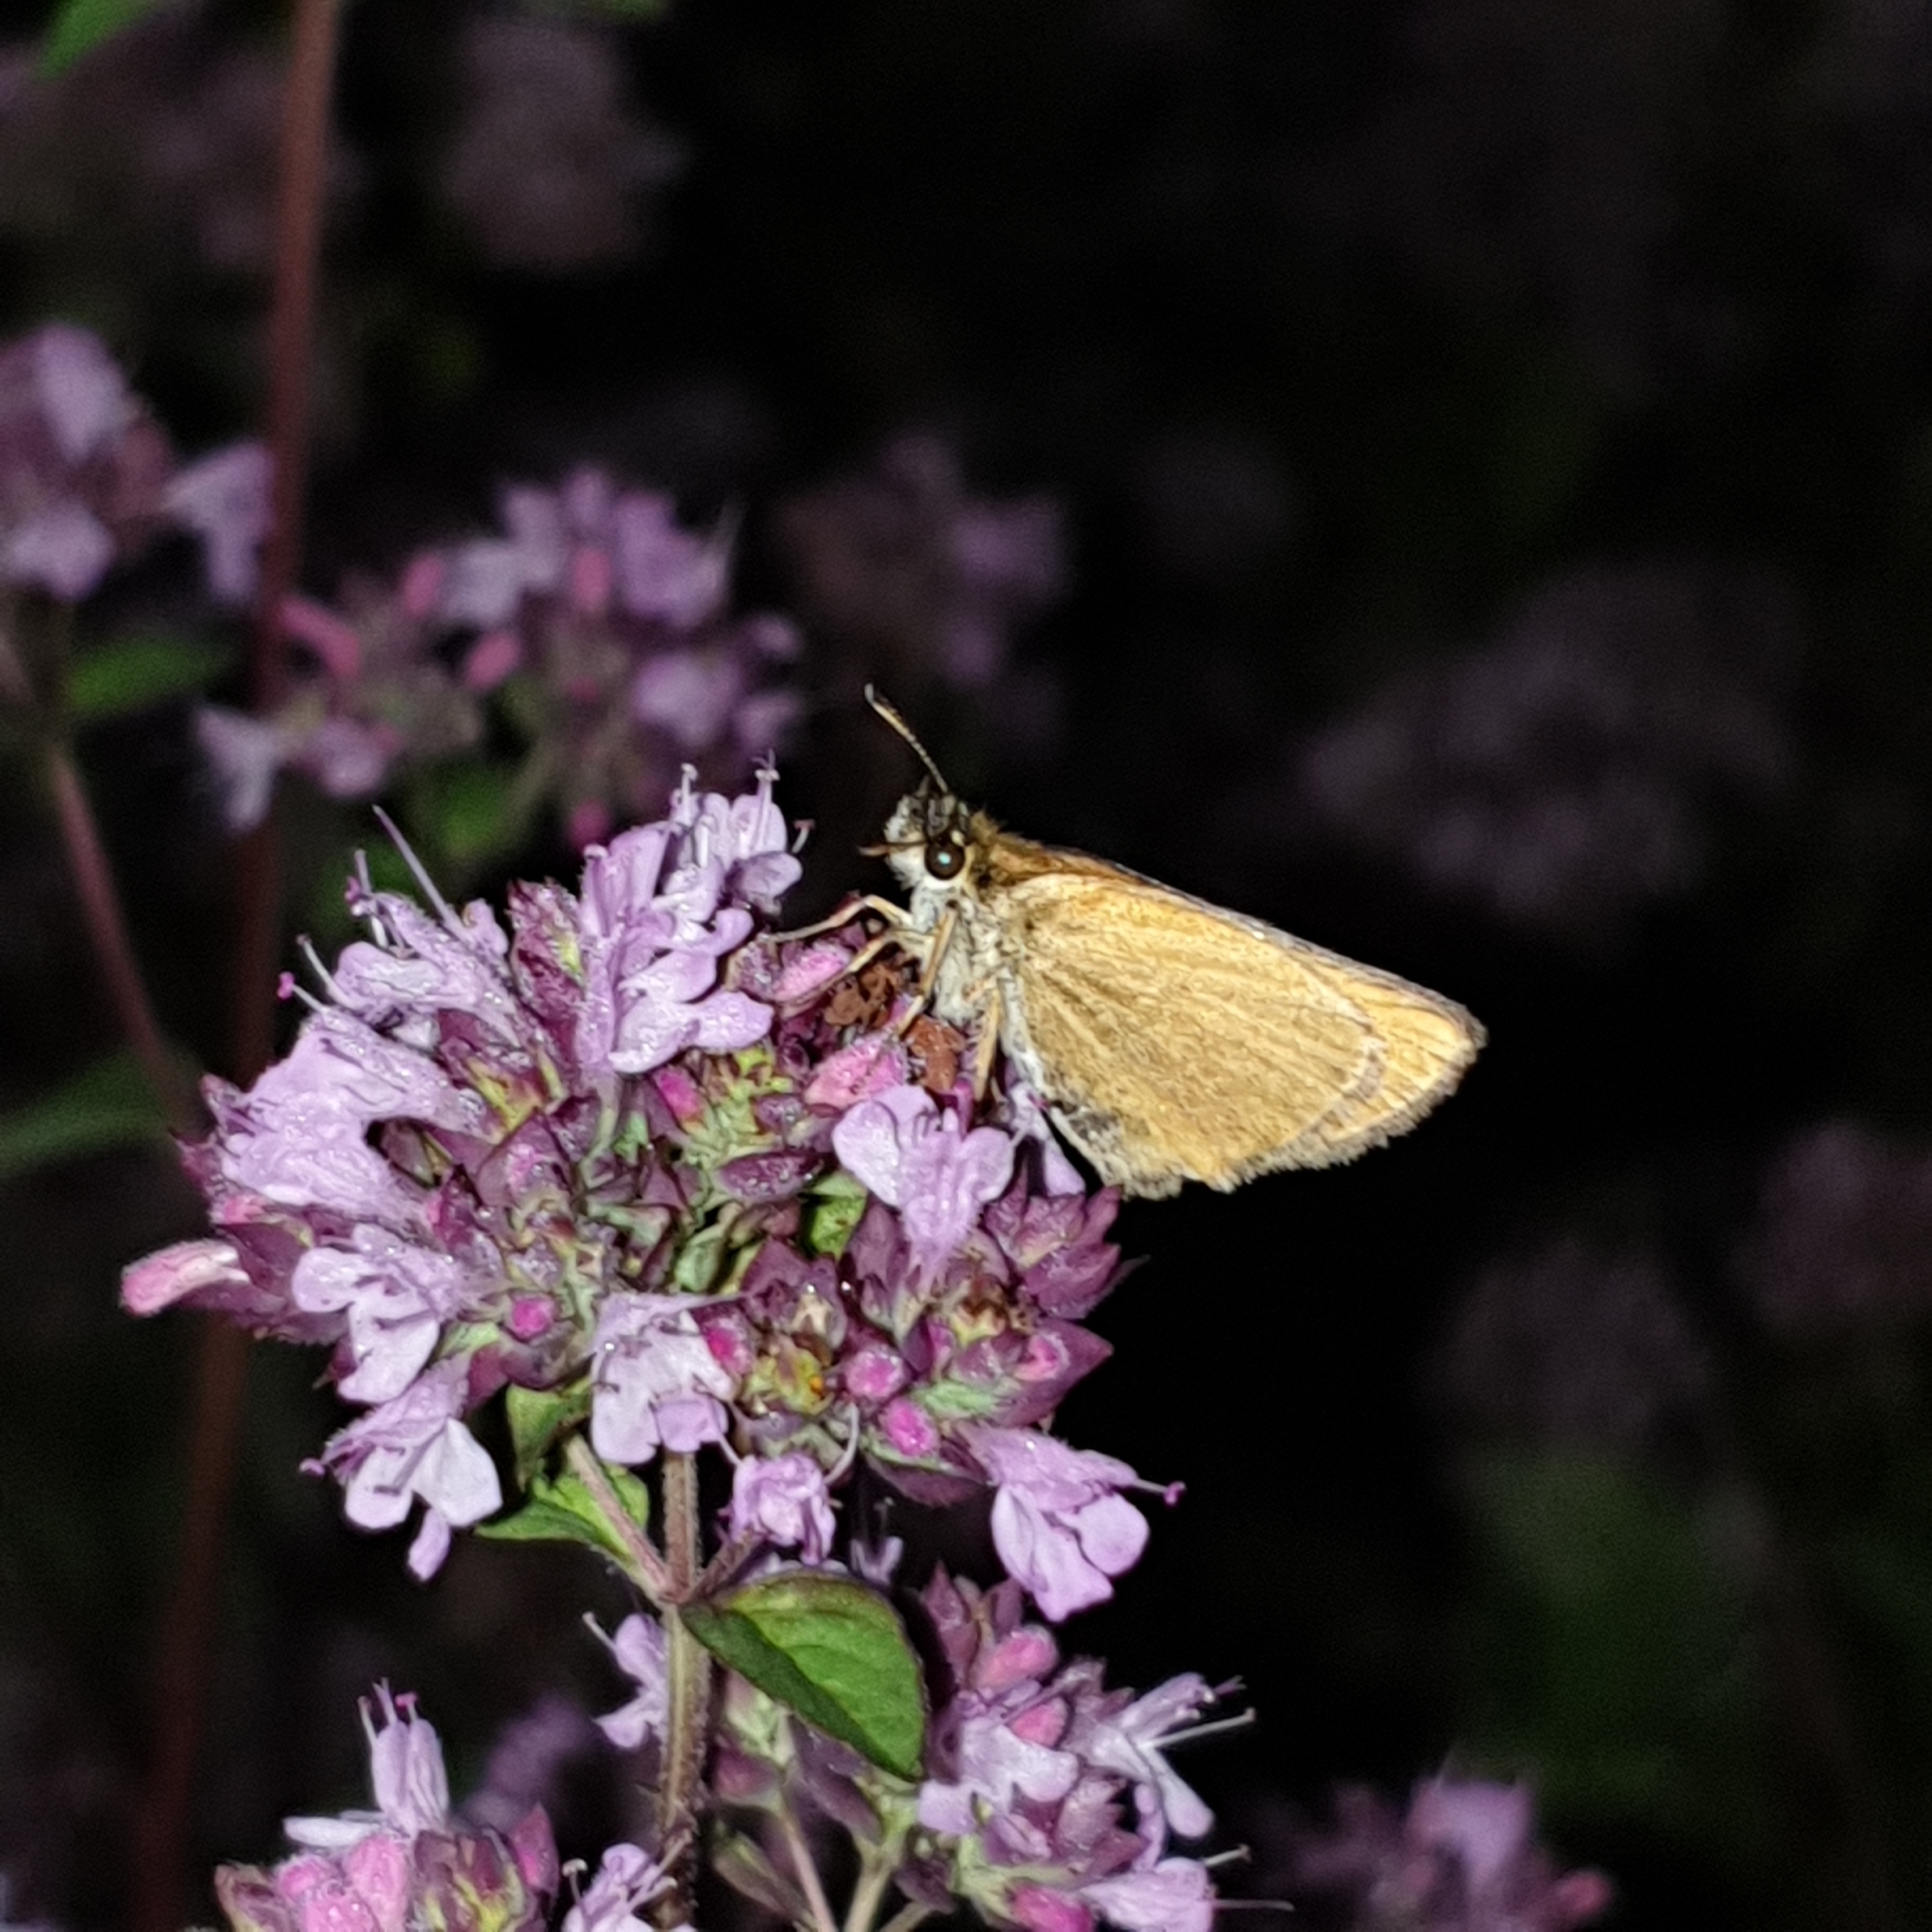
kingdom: Animalia
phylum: Arthropoda
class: Insecta
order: Lepidoptera
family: Hesperiidae
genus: Thymelicus
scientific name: Thymelicus lineola
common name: Essex skipper
